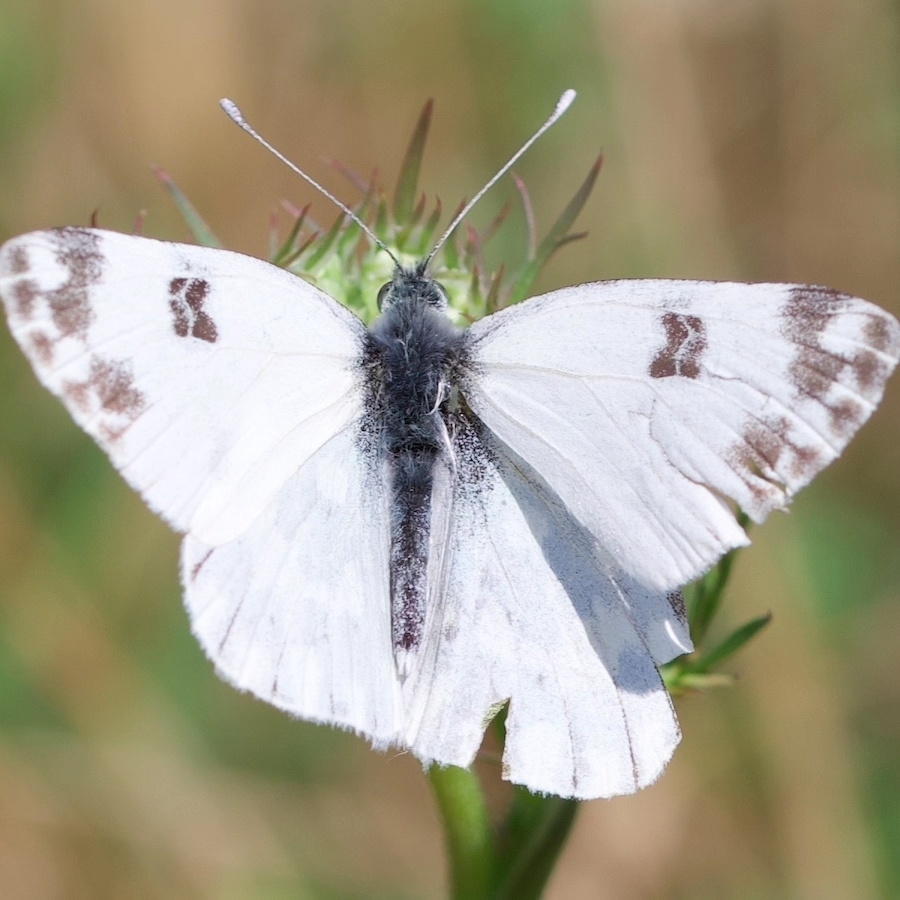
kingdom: Animalia
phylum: Arthropoda
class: Insecta
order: Lepidoptera
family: Pieridae
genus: Pontia
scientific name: Pontia edusa
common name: Eastern bath white
